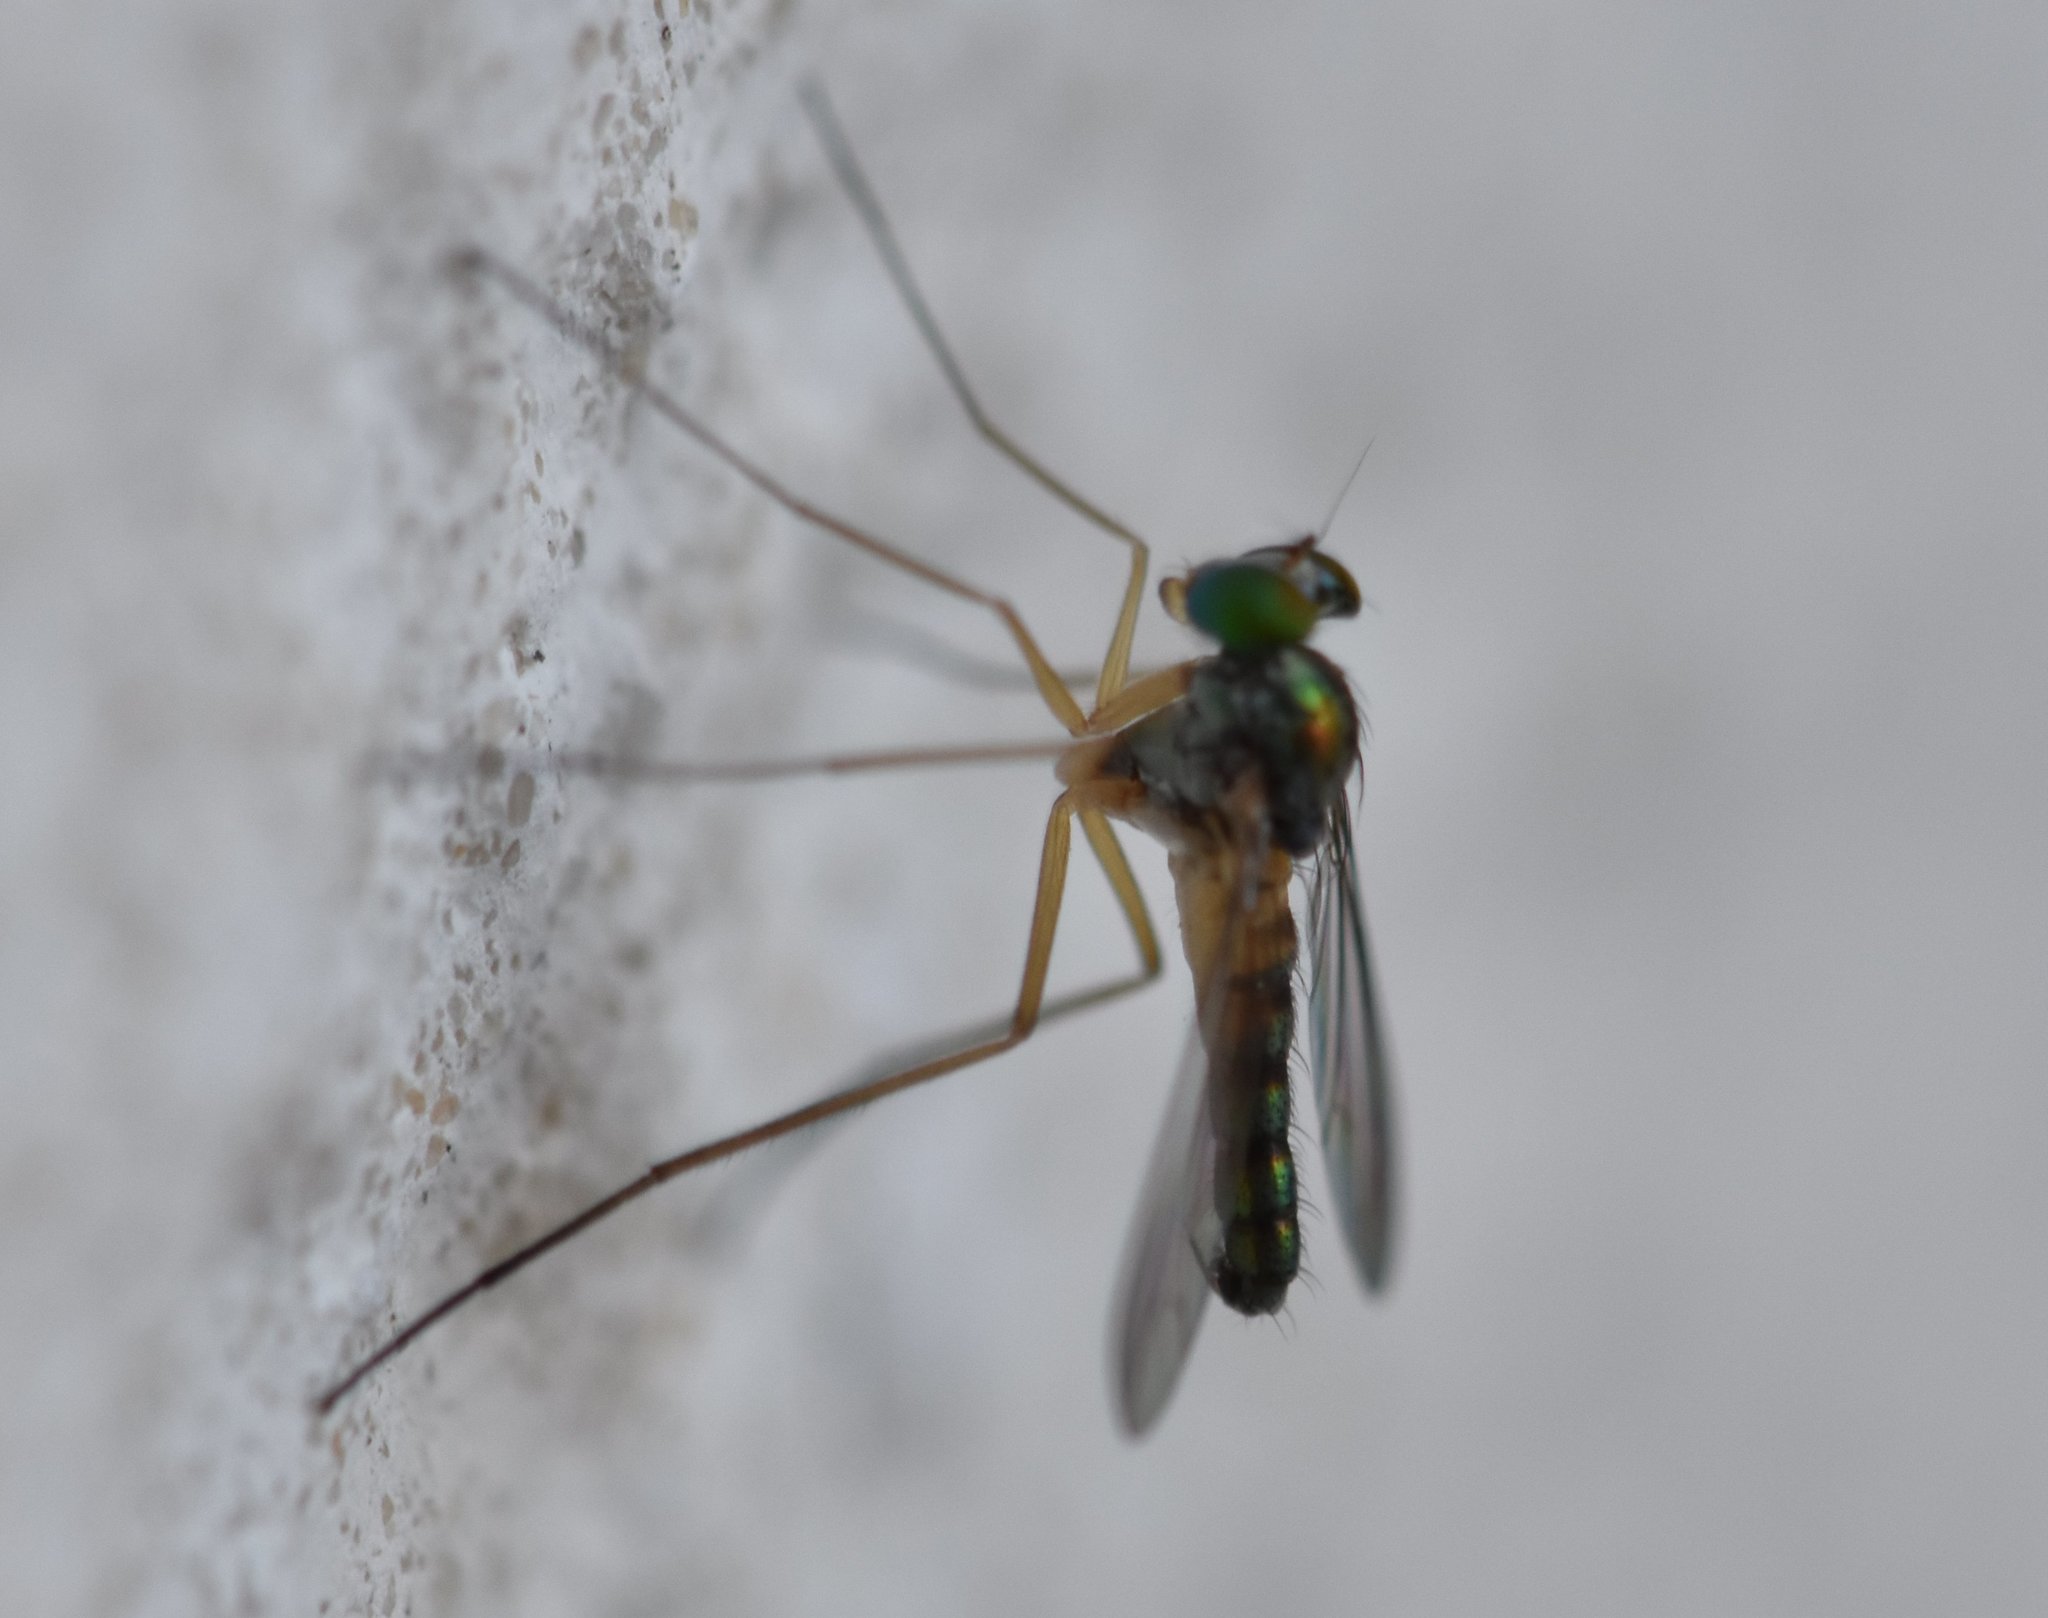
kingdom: Animalia
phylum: Arthropoda
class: Insecta
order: Diptera
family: Dolichopodidae
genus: Amblypsilopus
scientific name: Amblypsilopus variegatus
